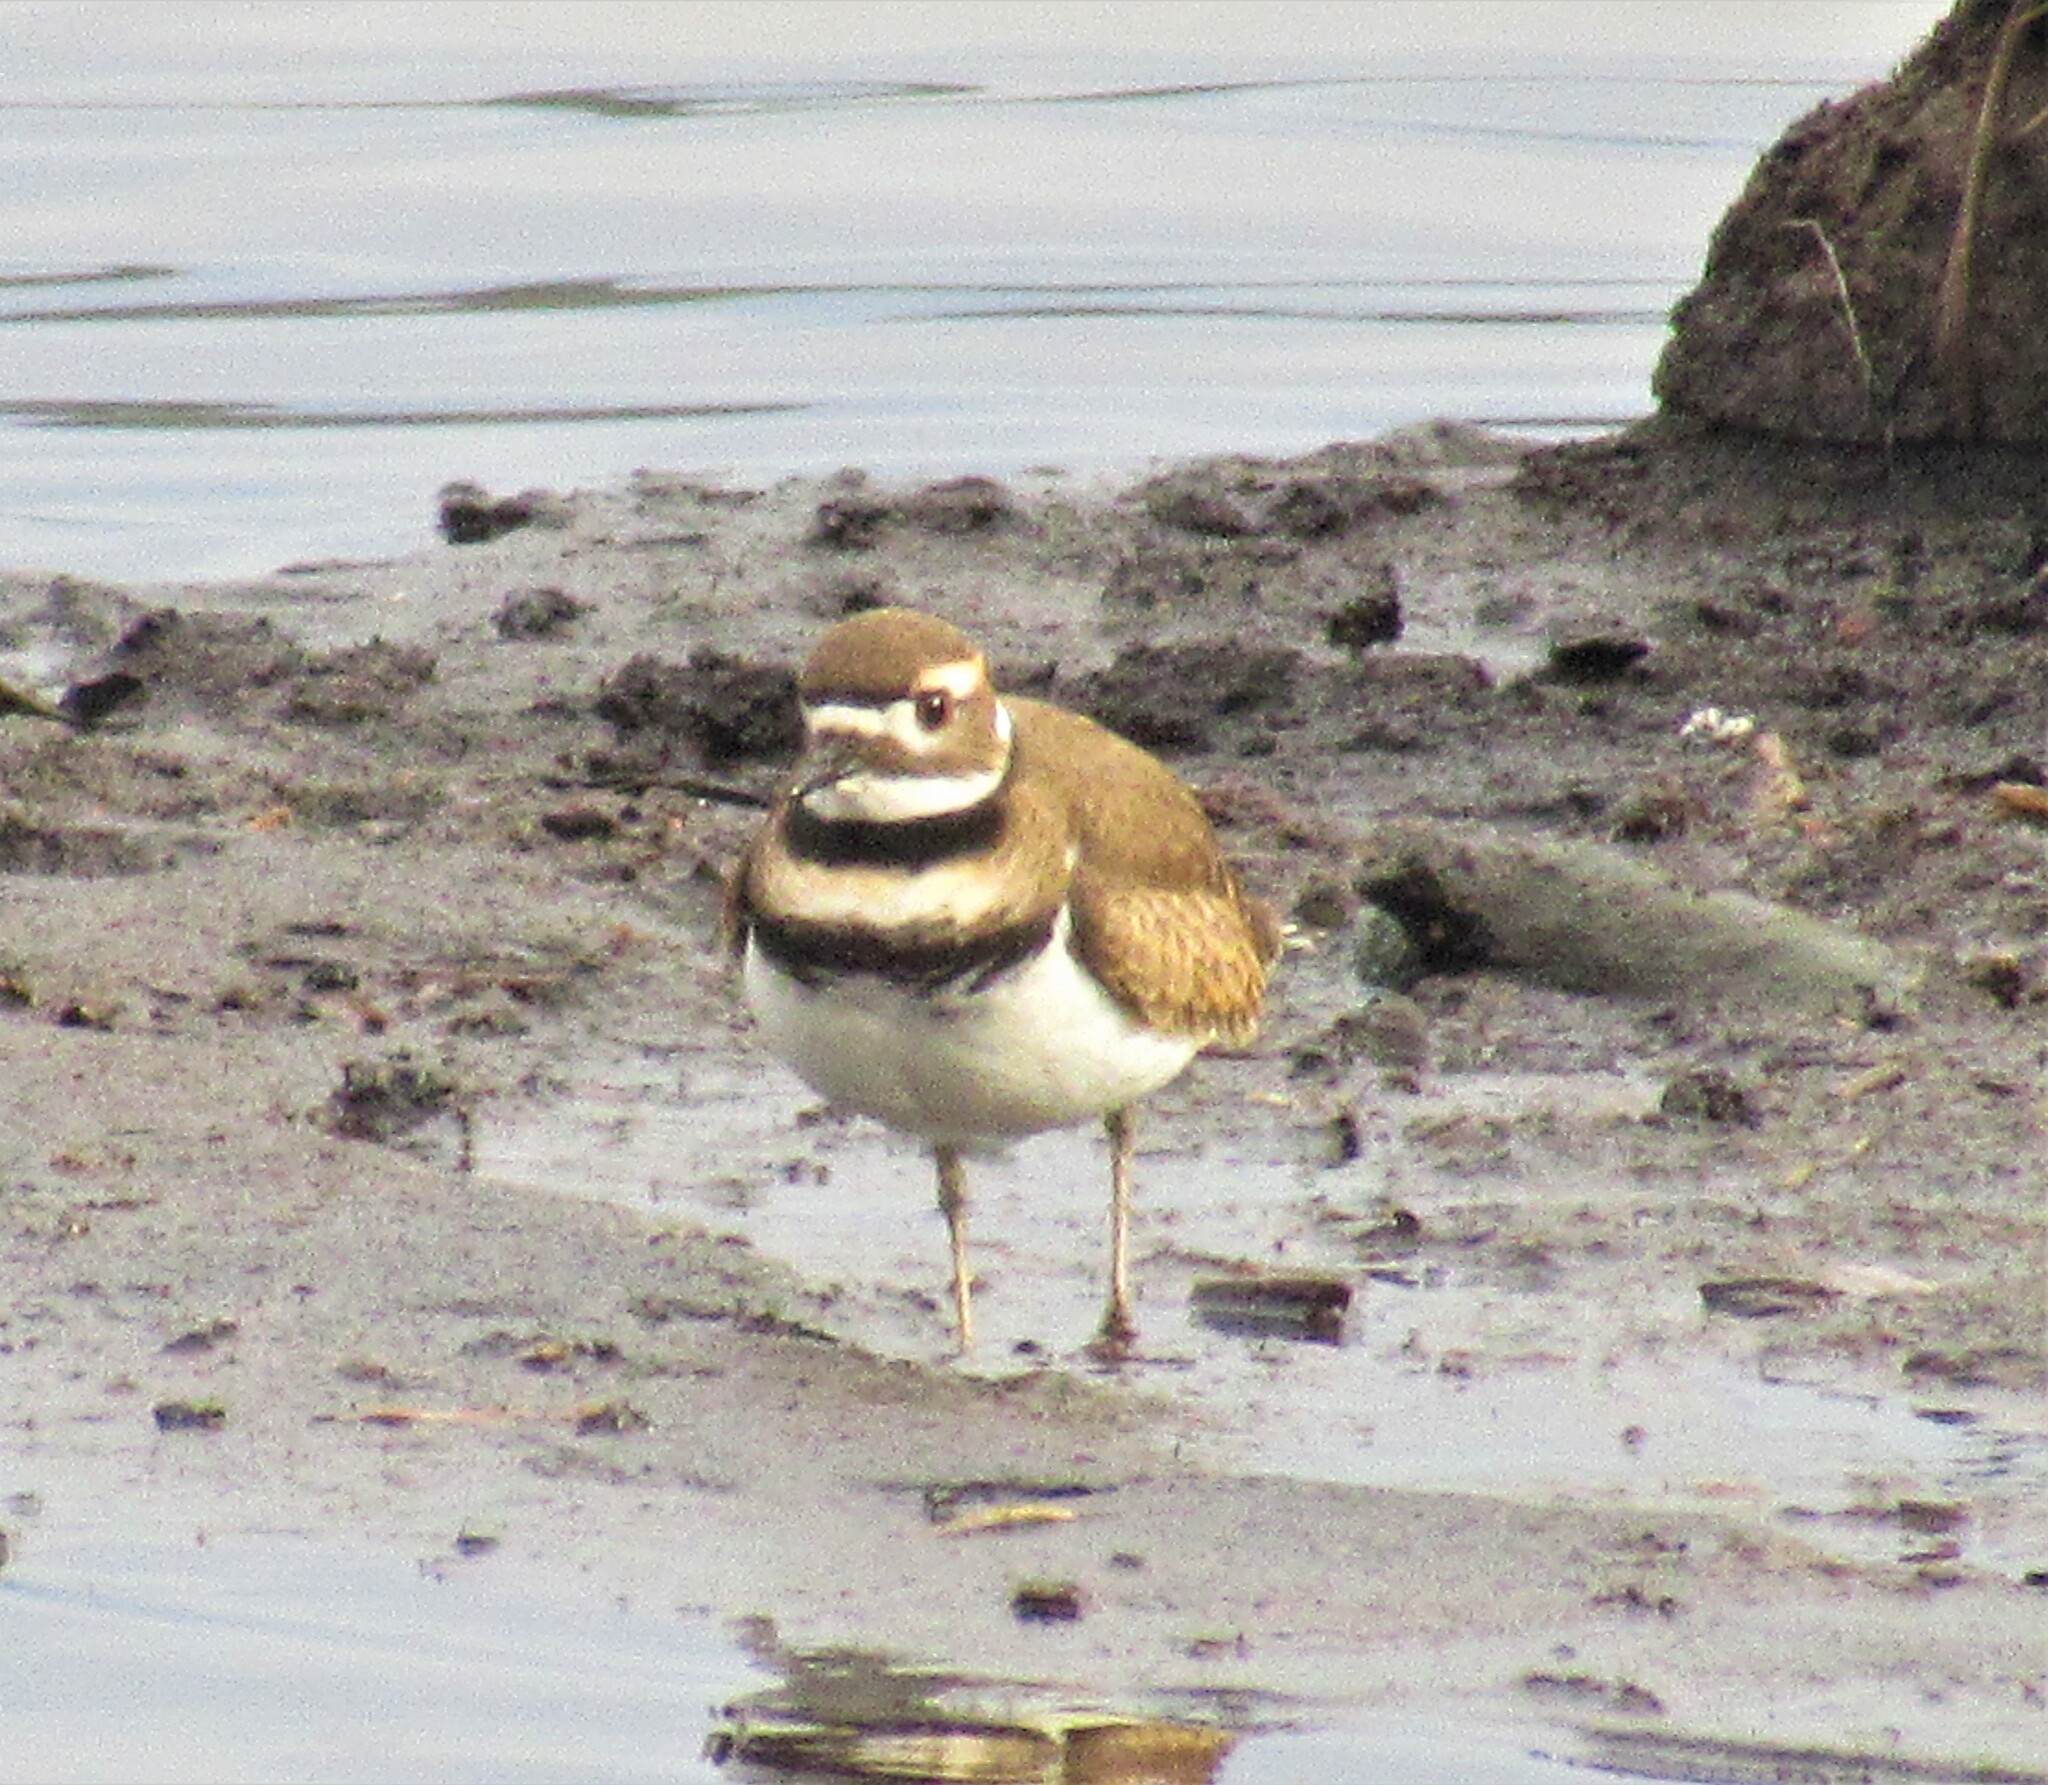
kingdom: Animalia
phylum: Chordata
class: Aves
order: Charadriiformes
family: Charadriidae
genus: Charadrius
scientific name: Charadrius vociferus
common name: Killdeer
